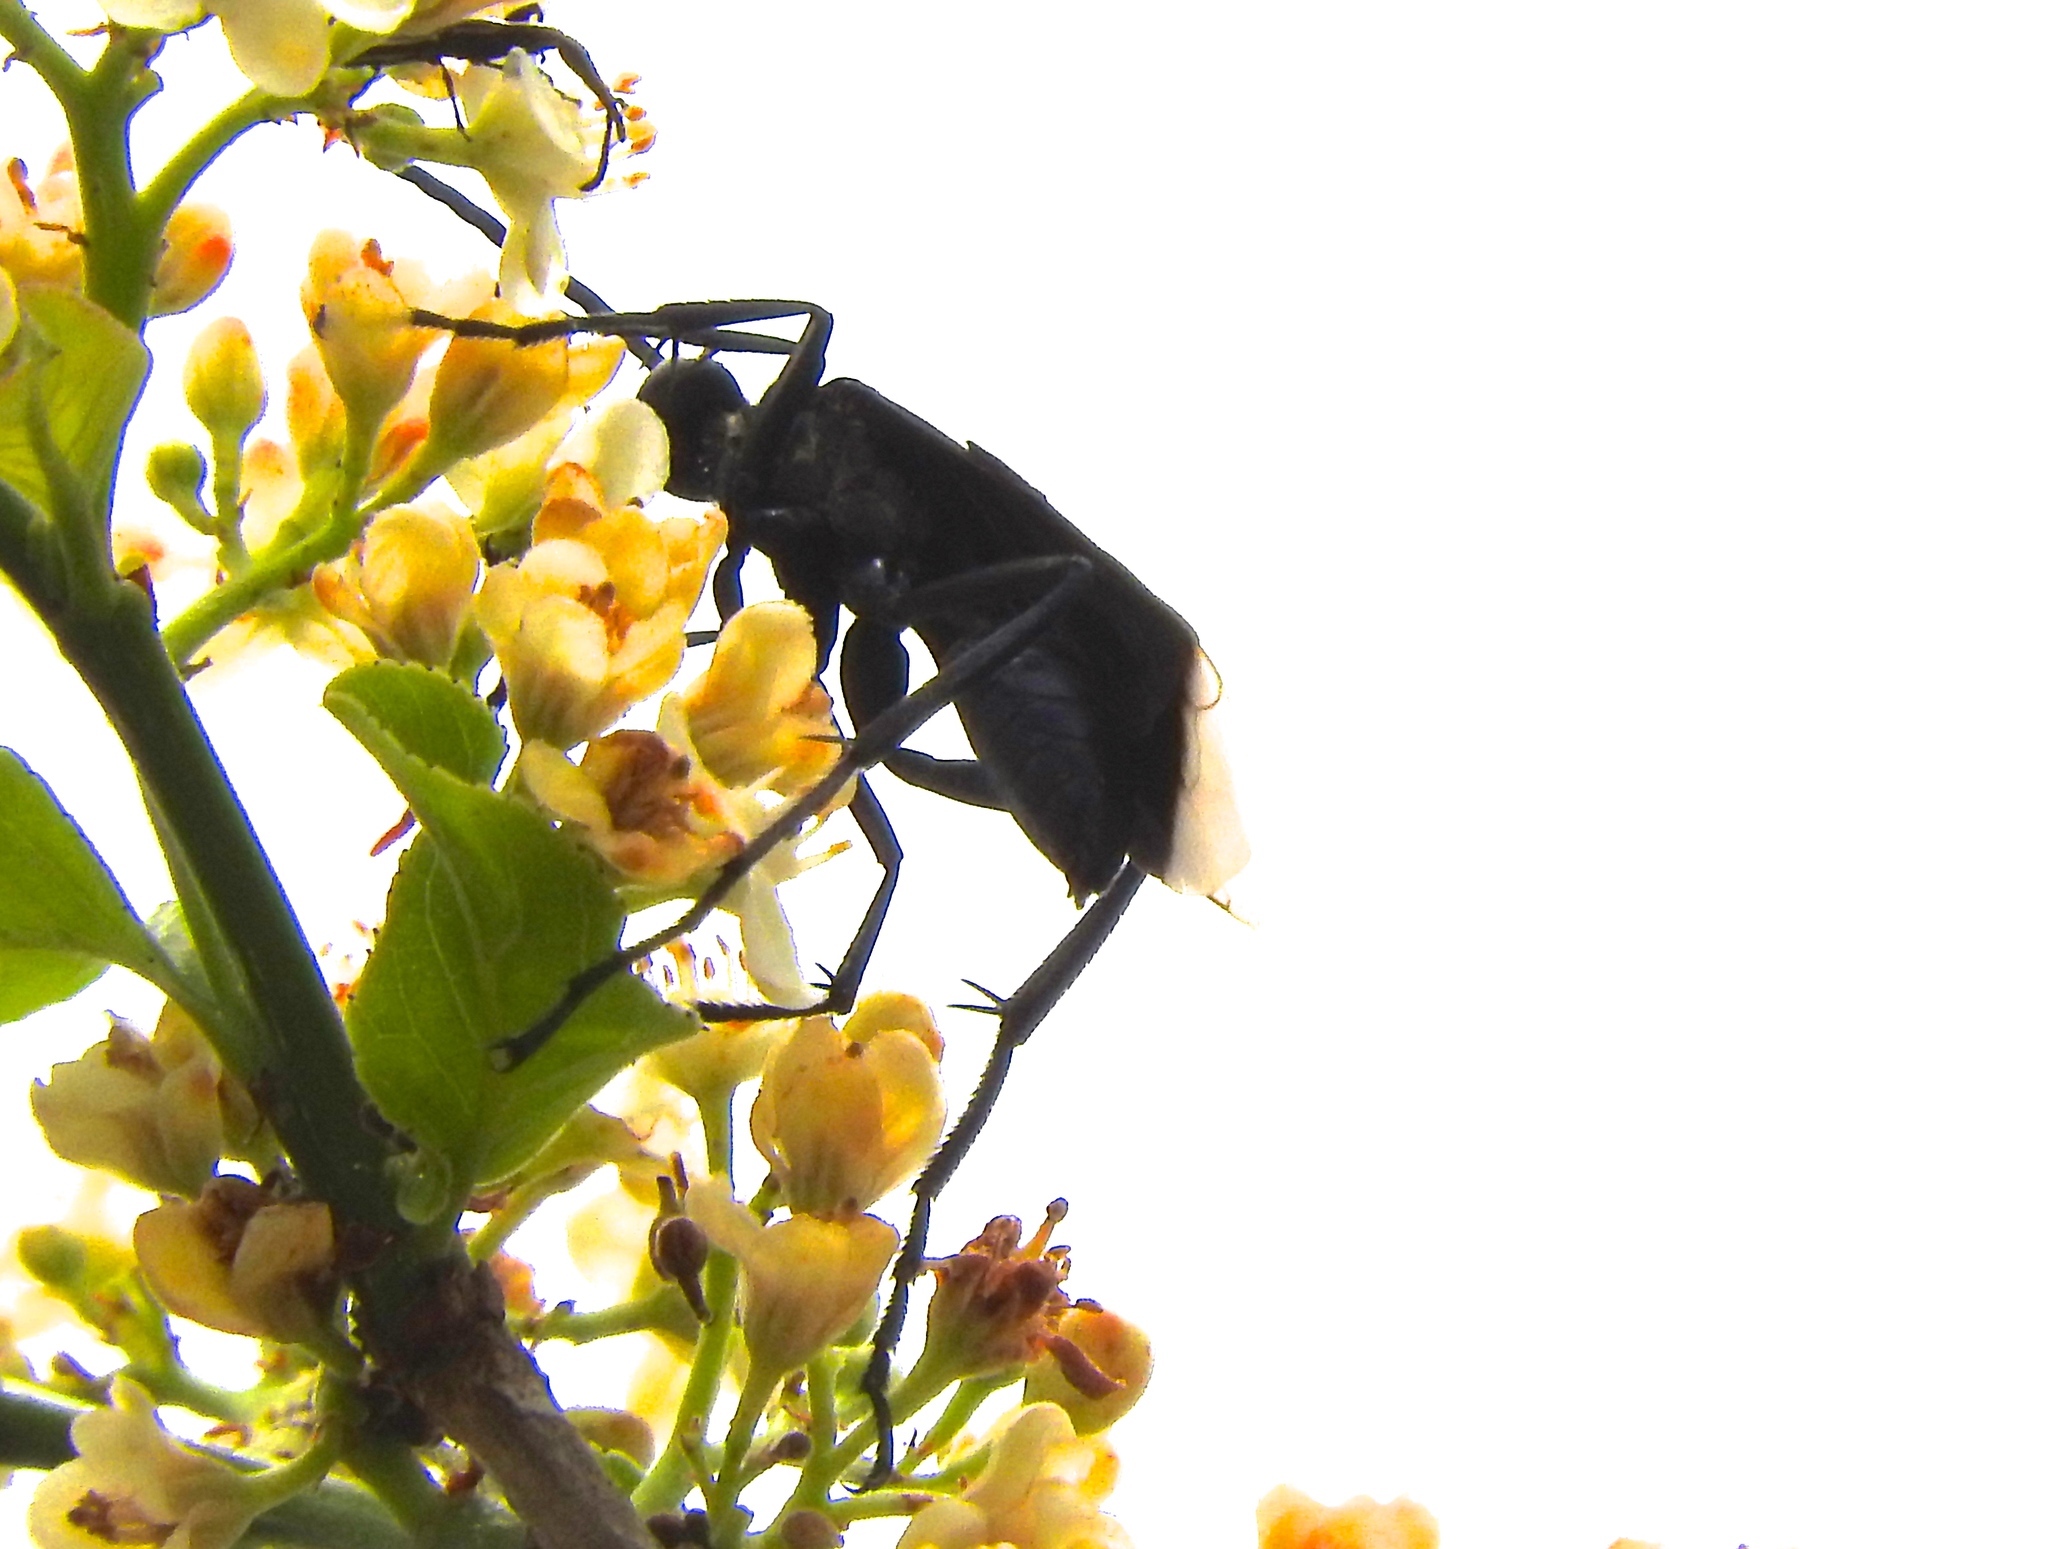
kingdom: Animalia
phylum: Arthropoda
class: Insecta
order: Hymenoptera
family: Pompilidae
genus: Pepsis
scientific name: Pepsis
